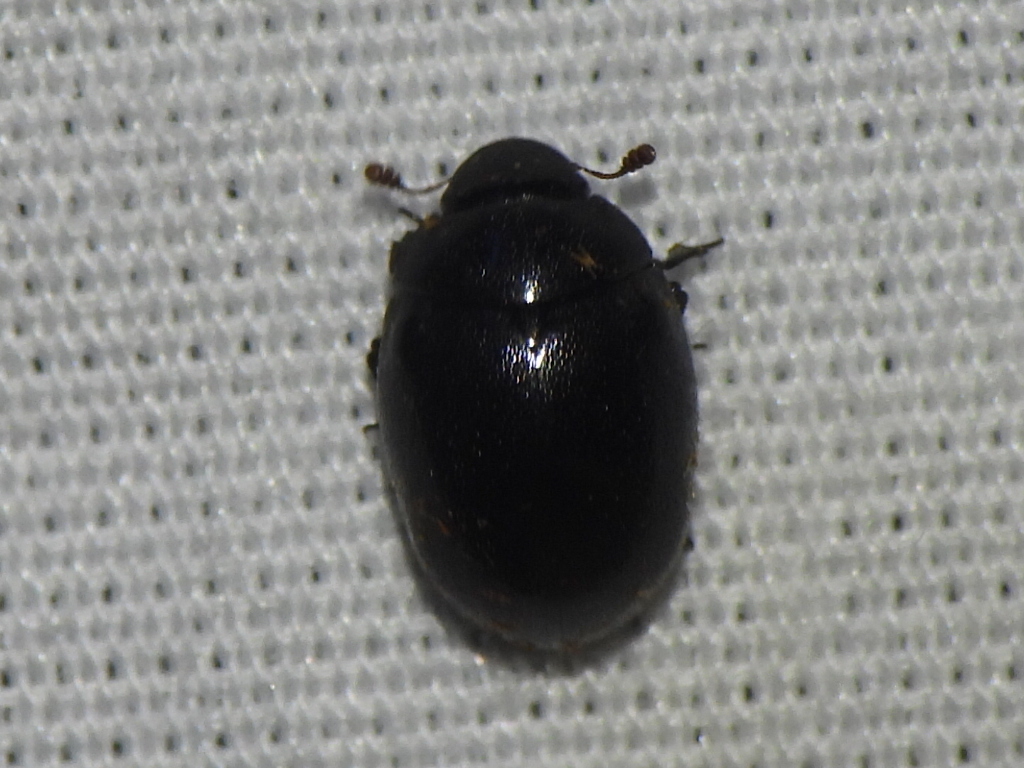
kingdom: Animalia
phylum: Arthropoda
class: Insecta
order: Coleoptera
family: Nosodendridae
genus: Nosodendron
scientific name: Nosodendron unicolor
